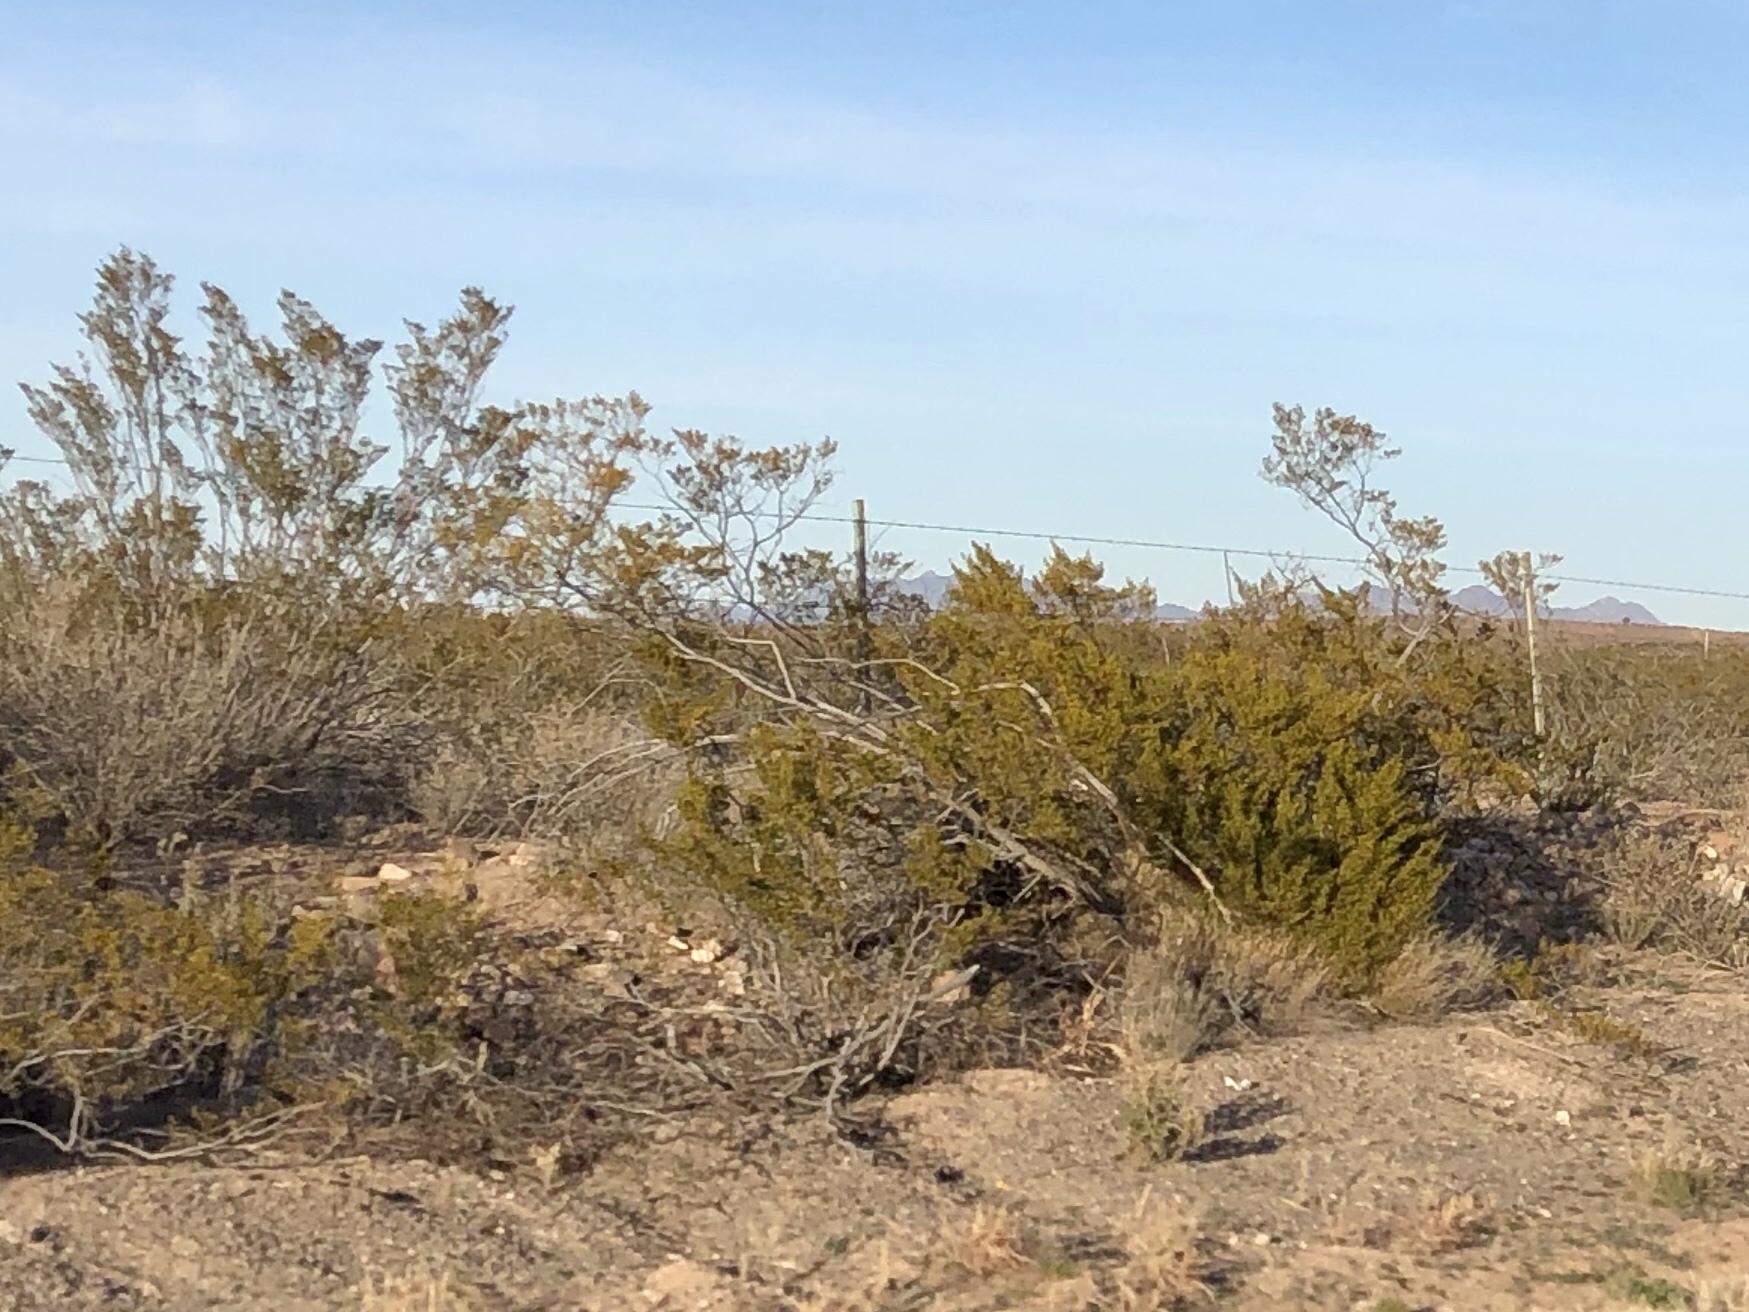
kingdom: Plantae
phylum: Tracheophyta
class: Magnoliopsida
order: Zygophyllales
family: Zygophyllaceae
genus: Larrea
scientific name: Larrea tridentata
